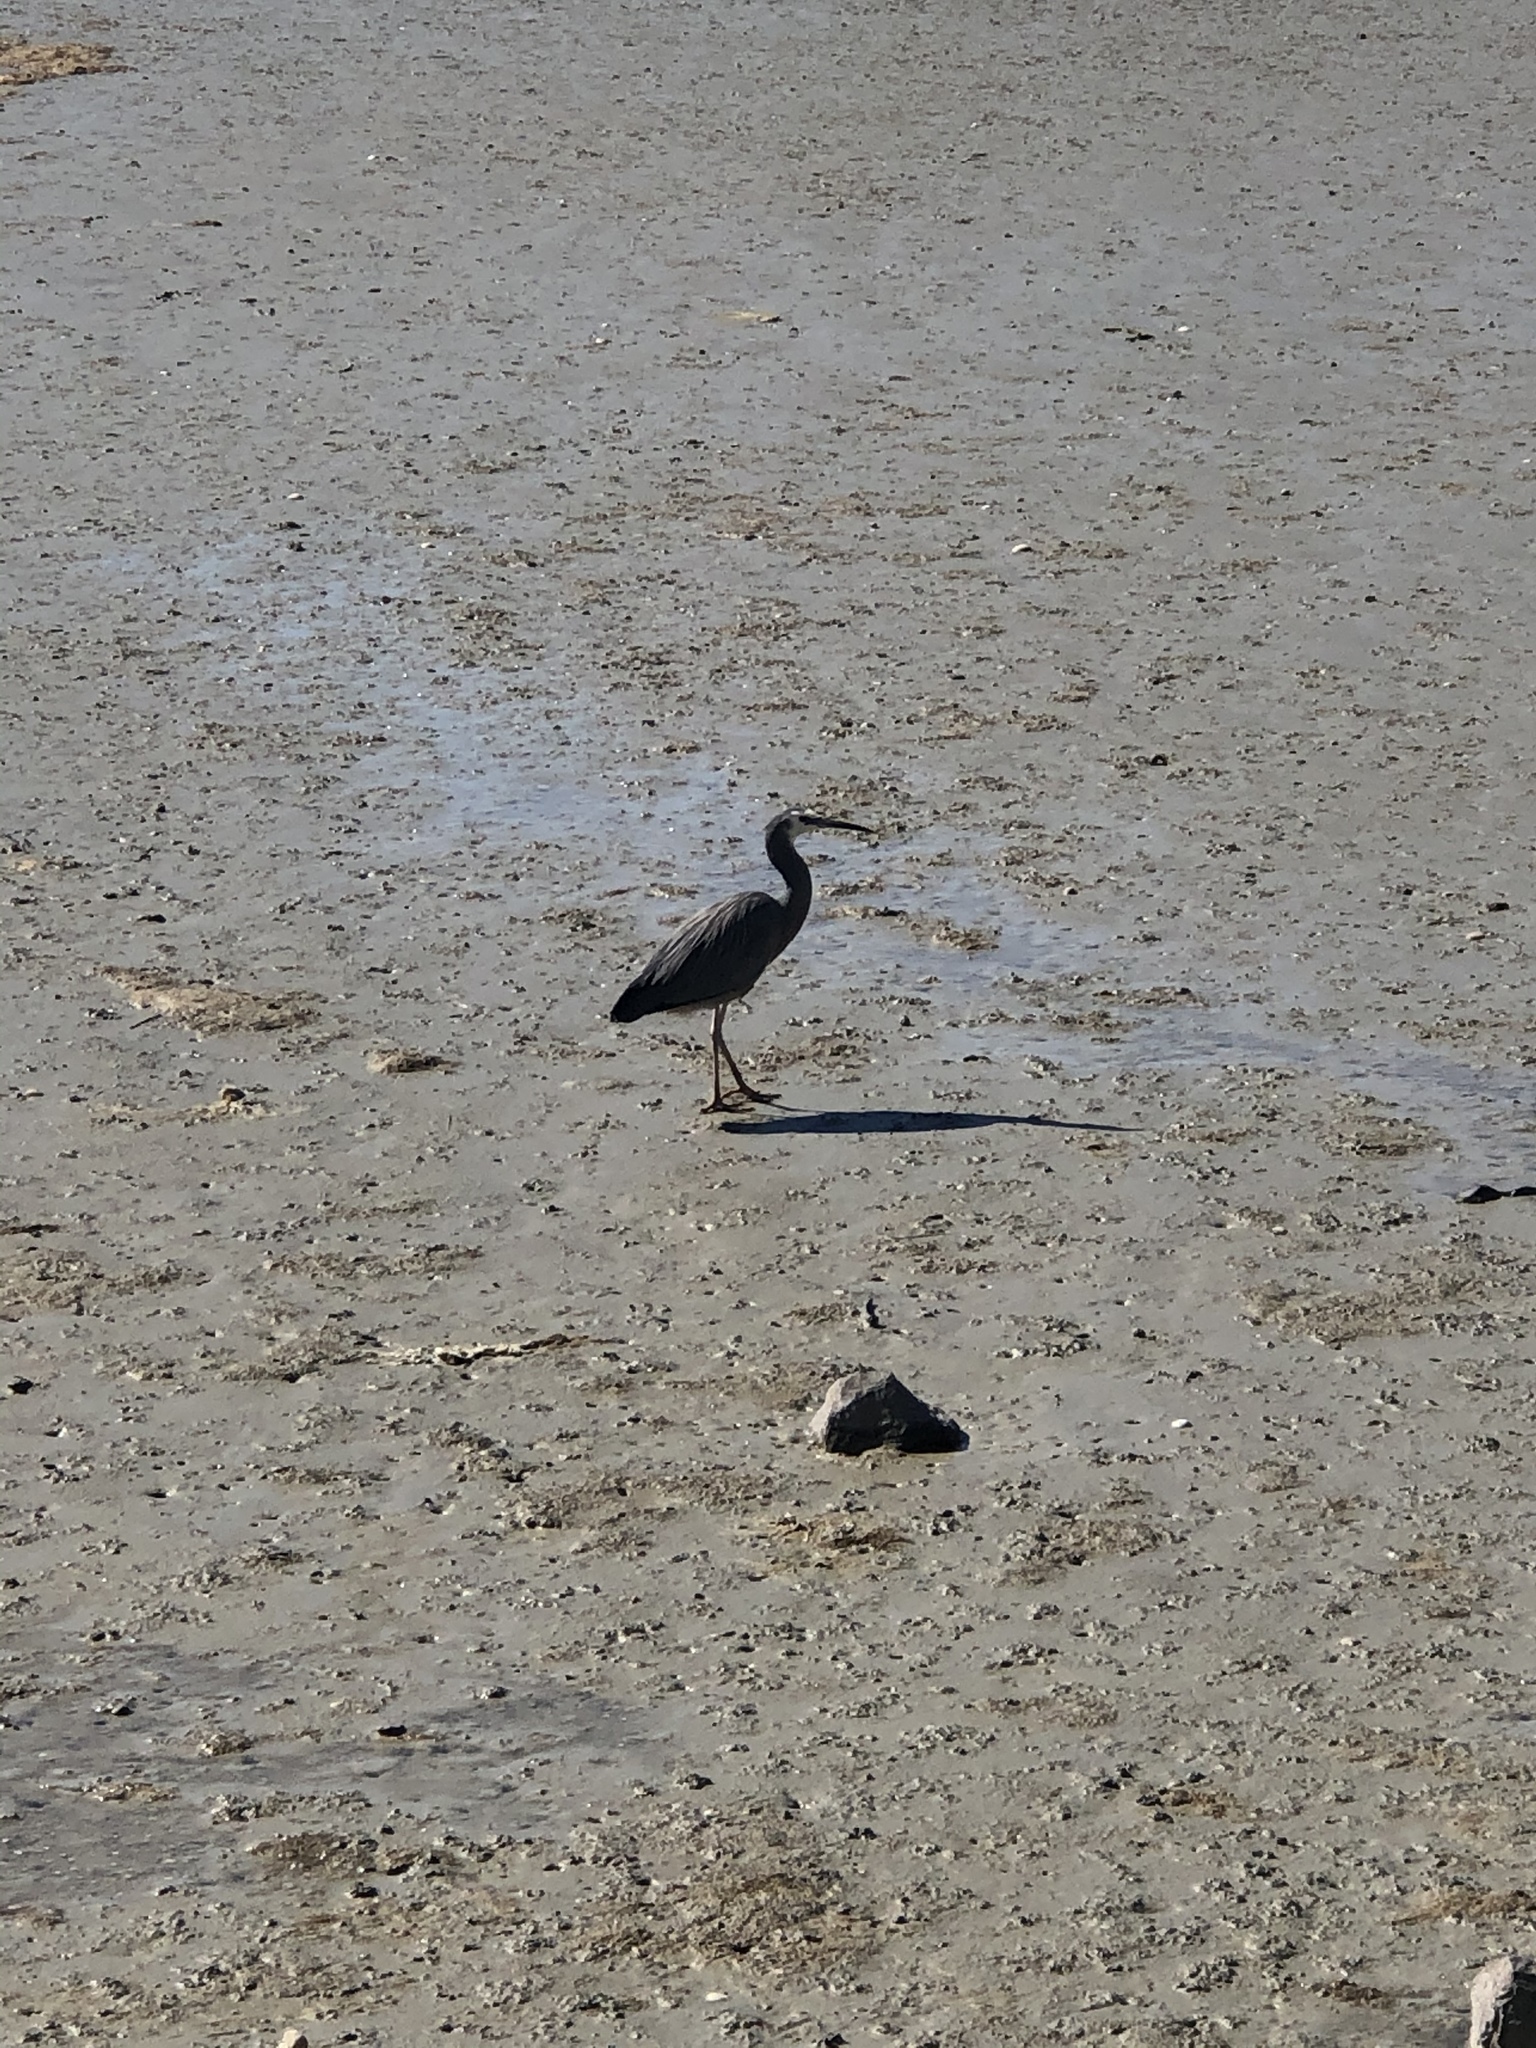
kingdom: Animalia
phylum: Chordata
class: Aves
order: Pelecaniformes
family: Ardeidae
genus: Egretta
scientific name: Egretta novaehollandiae
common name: White-faced heron
